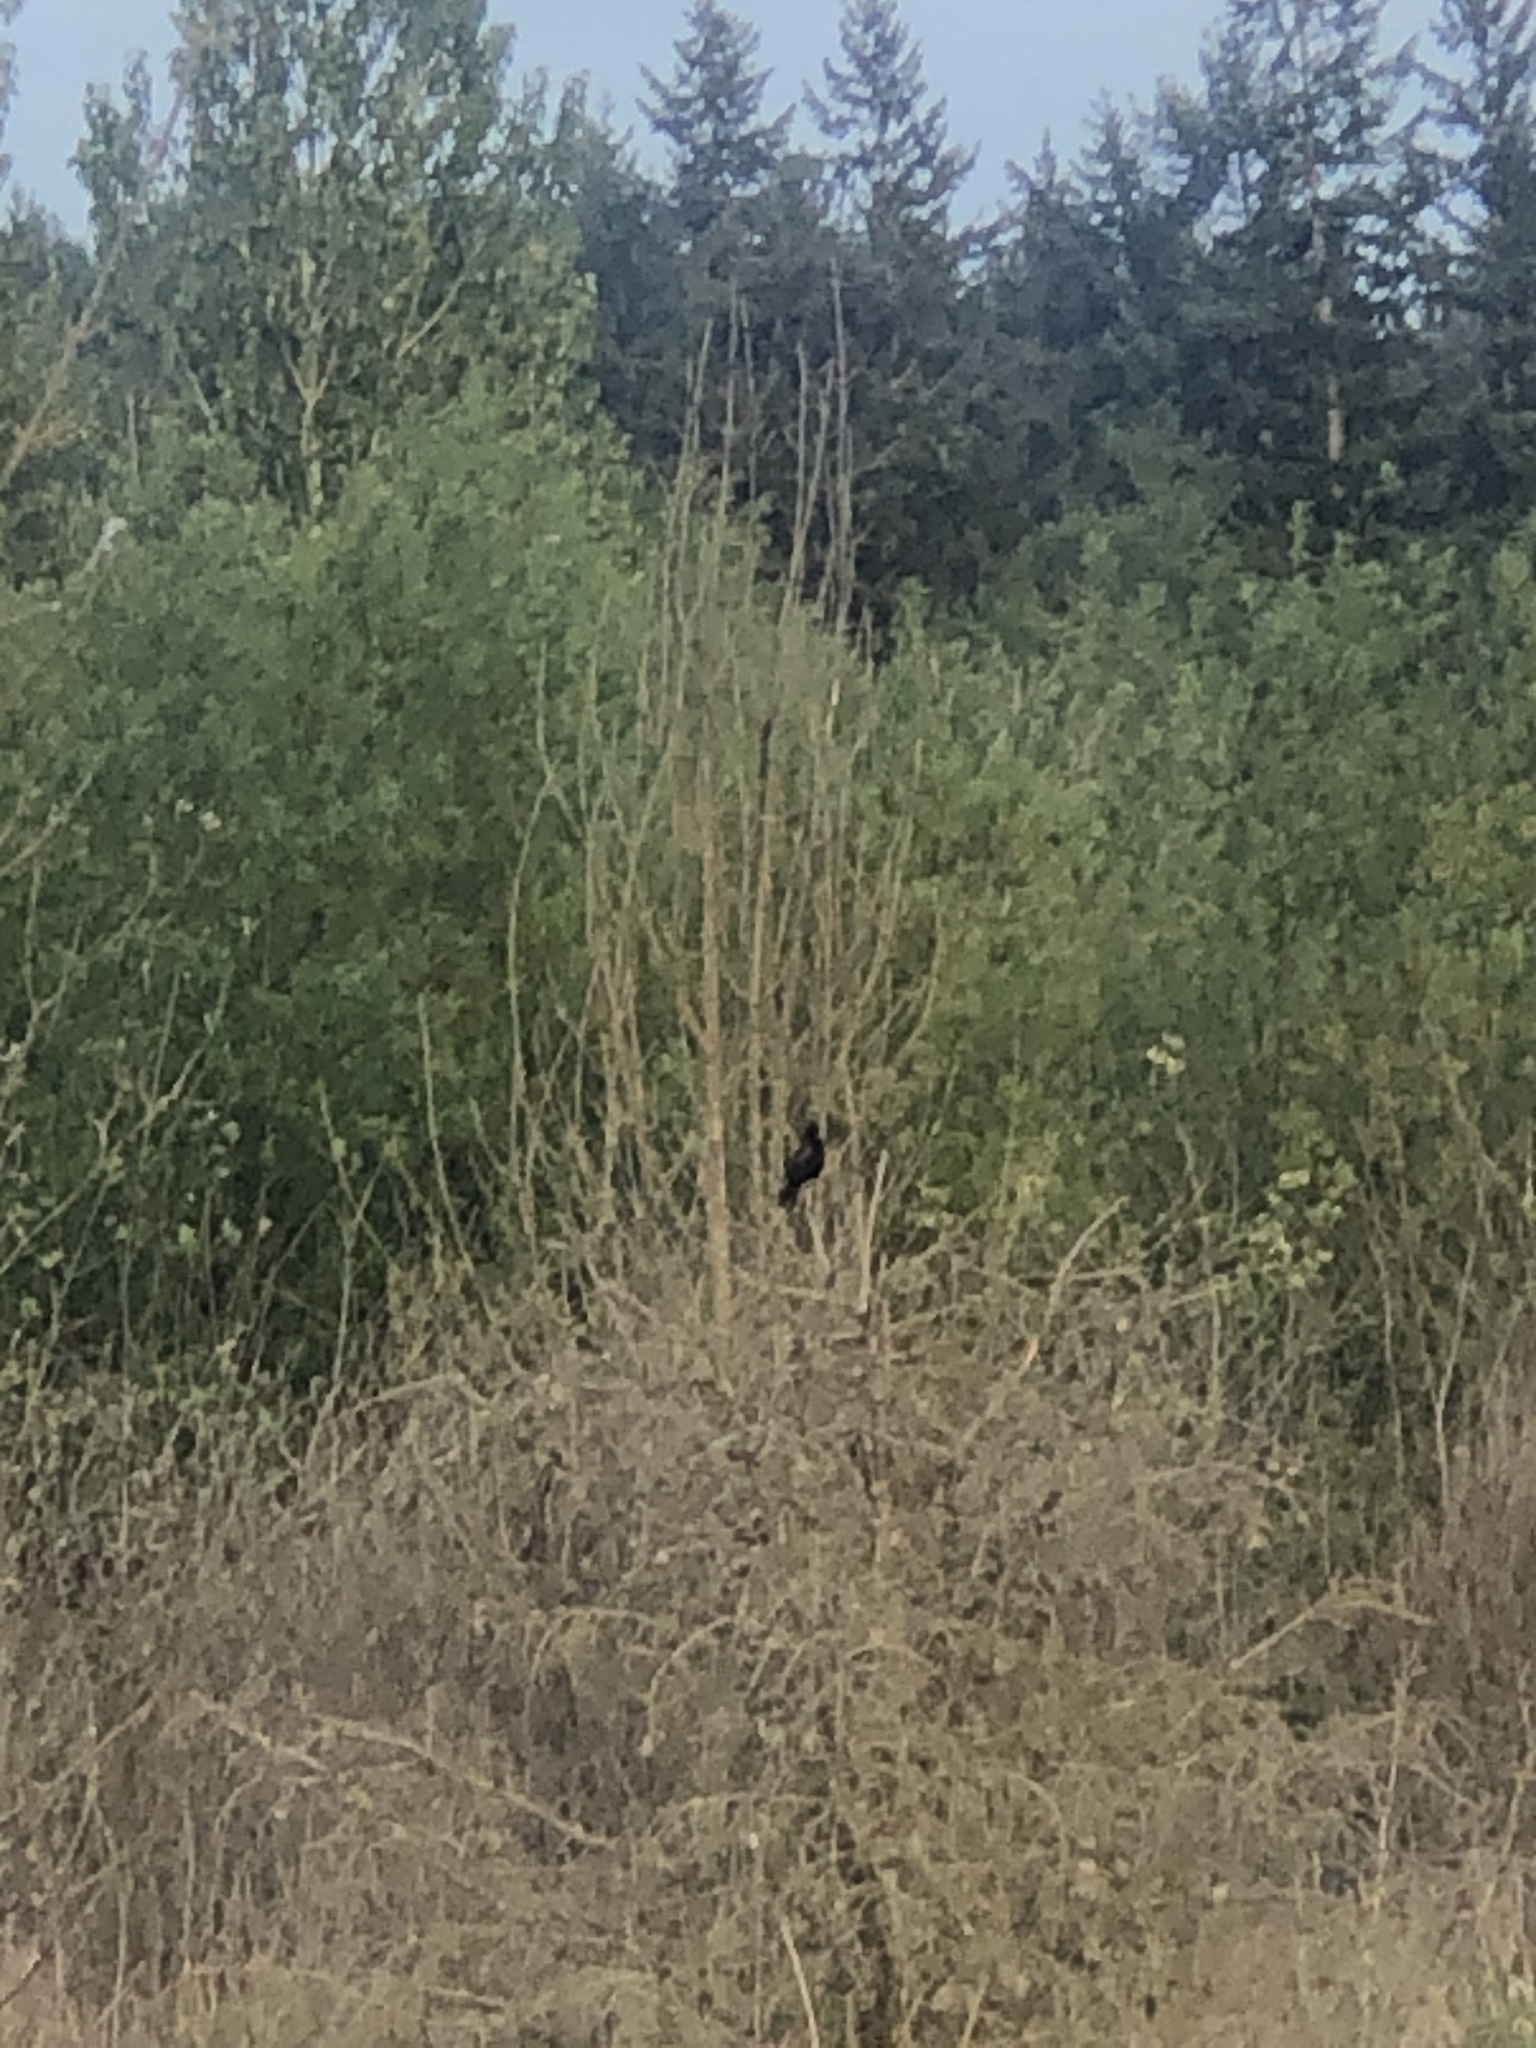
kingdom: Animalia
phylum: Chordata
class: Aves
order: Passeriformes
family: Icteridae
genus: Agelaius
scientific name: Agelaius phoeniceus
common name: Red-winged blackbird
